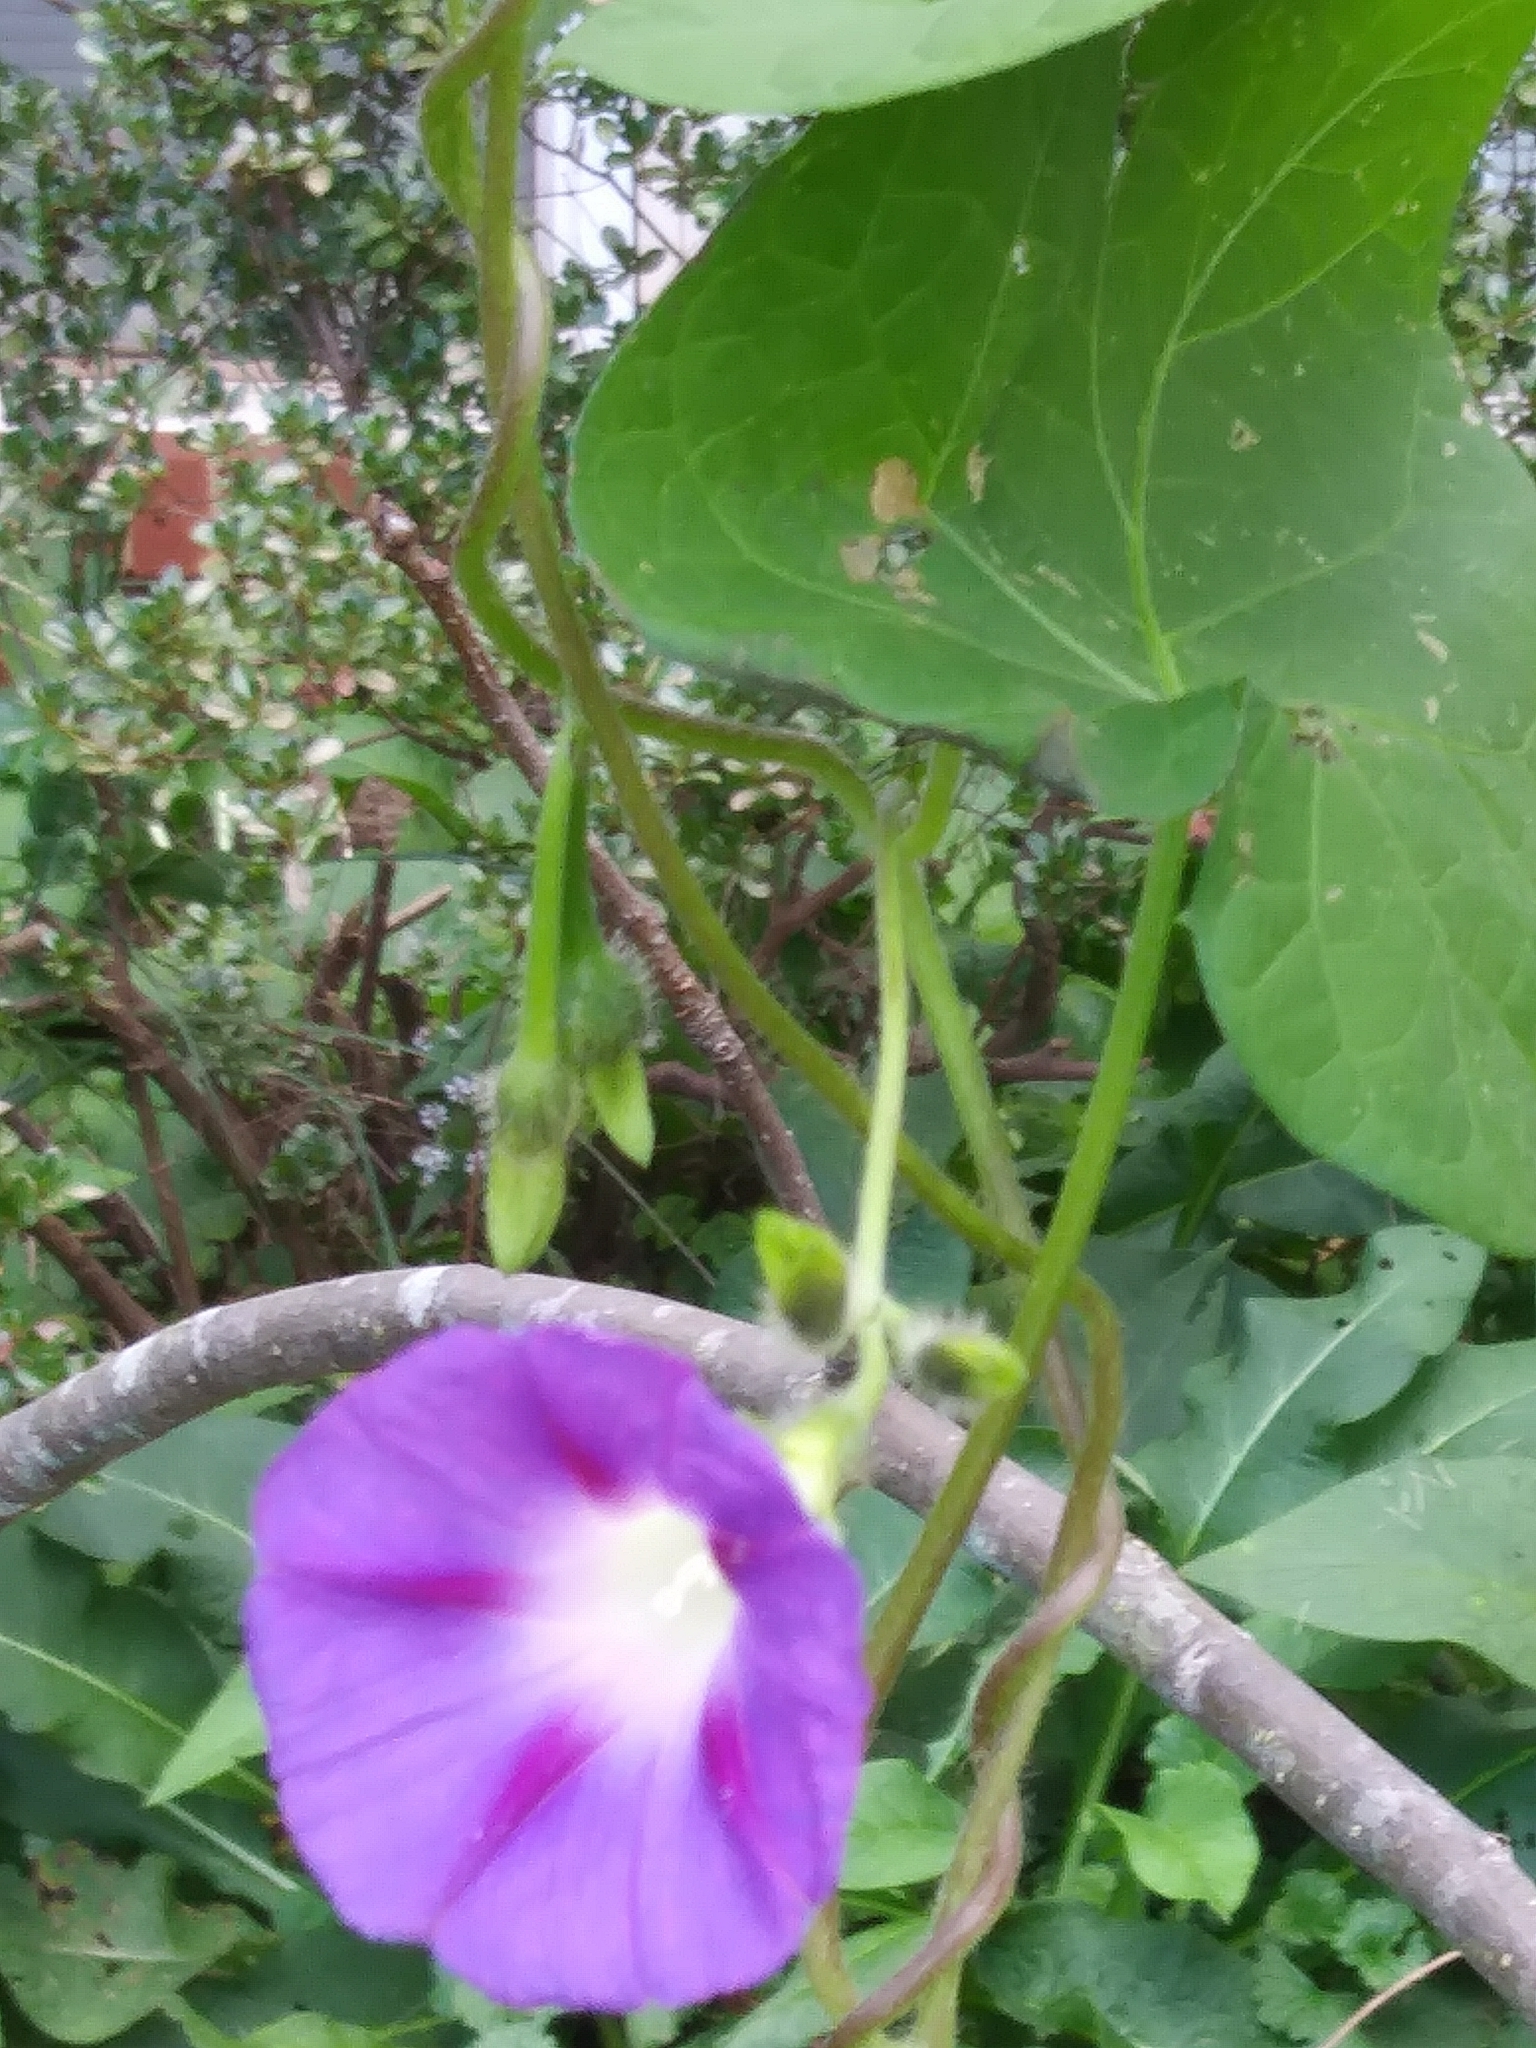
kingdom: Plantae
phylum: Tracheophyta
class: Magnoliopsida
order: Solanales
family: Convolvulaceae
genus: Ipomoea
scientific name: Ipomoea purpurea
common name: Common morning-glory
